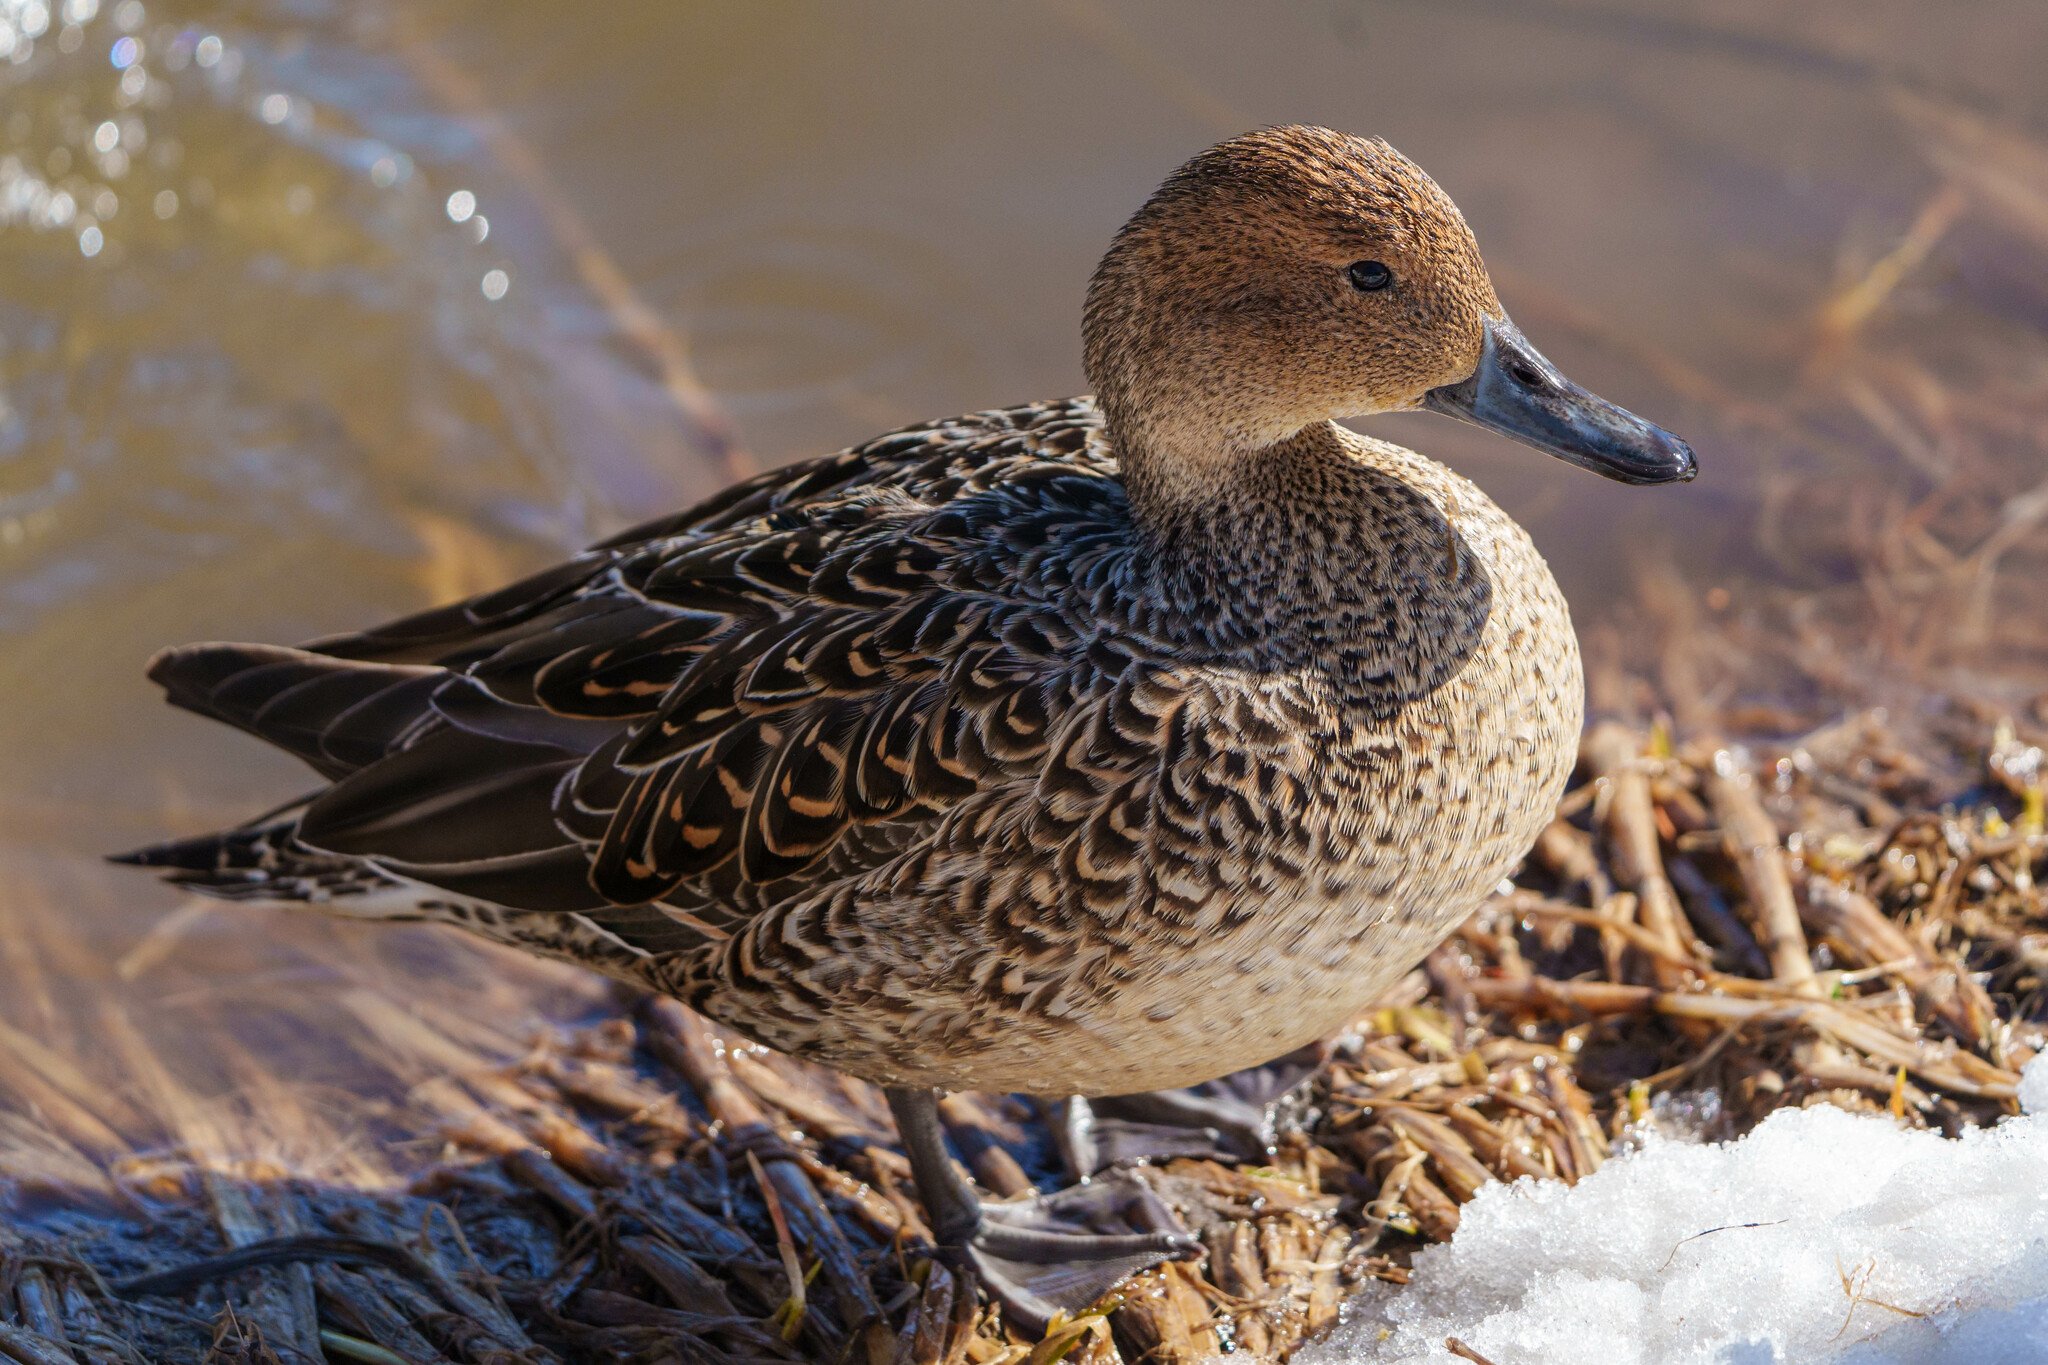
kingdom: Animalia
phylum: Chordata
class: Aves
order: Anseriformes
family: Anatidae
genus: Anas
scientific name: Anas acuta
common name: Northern pintail
